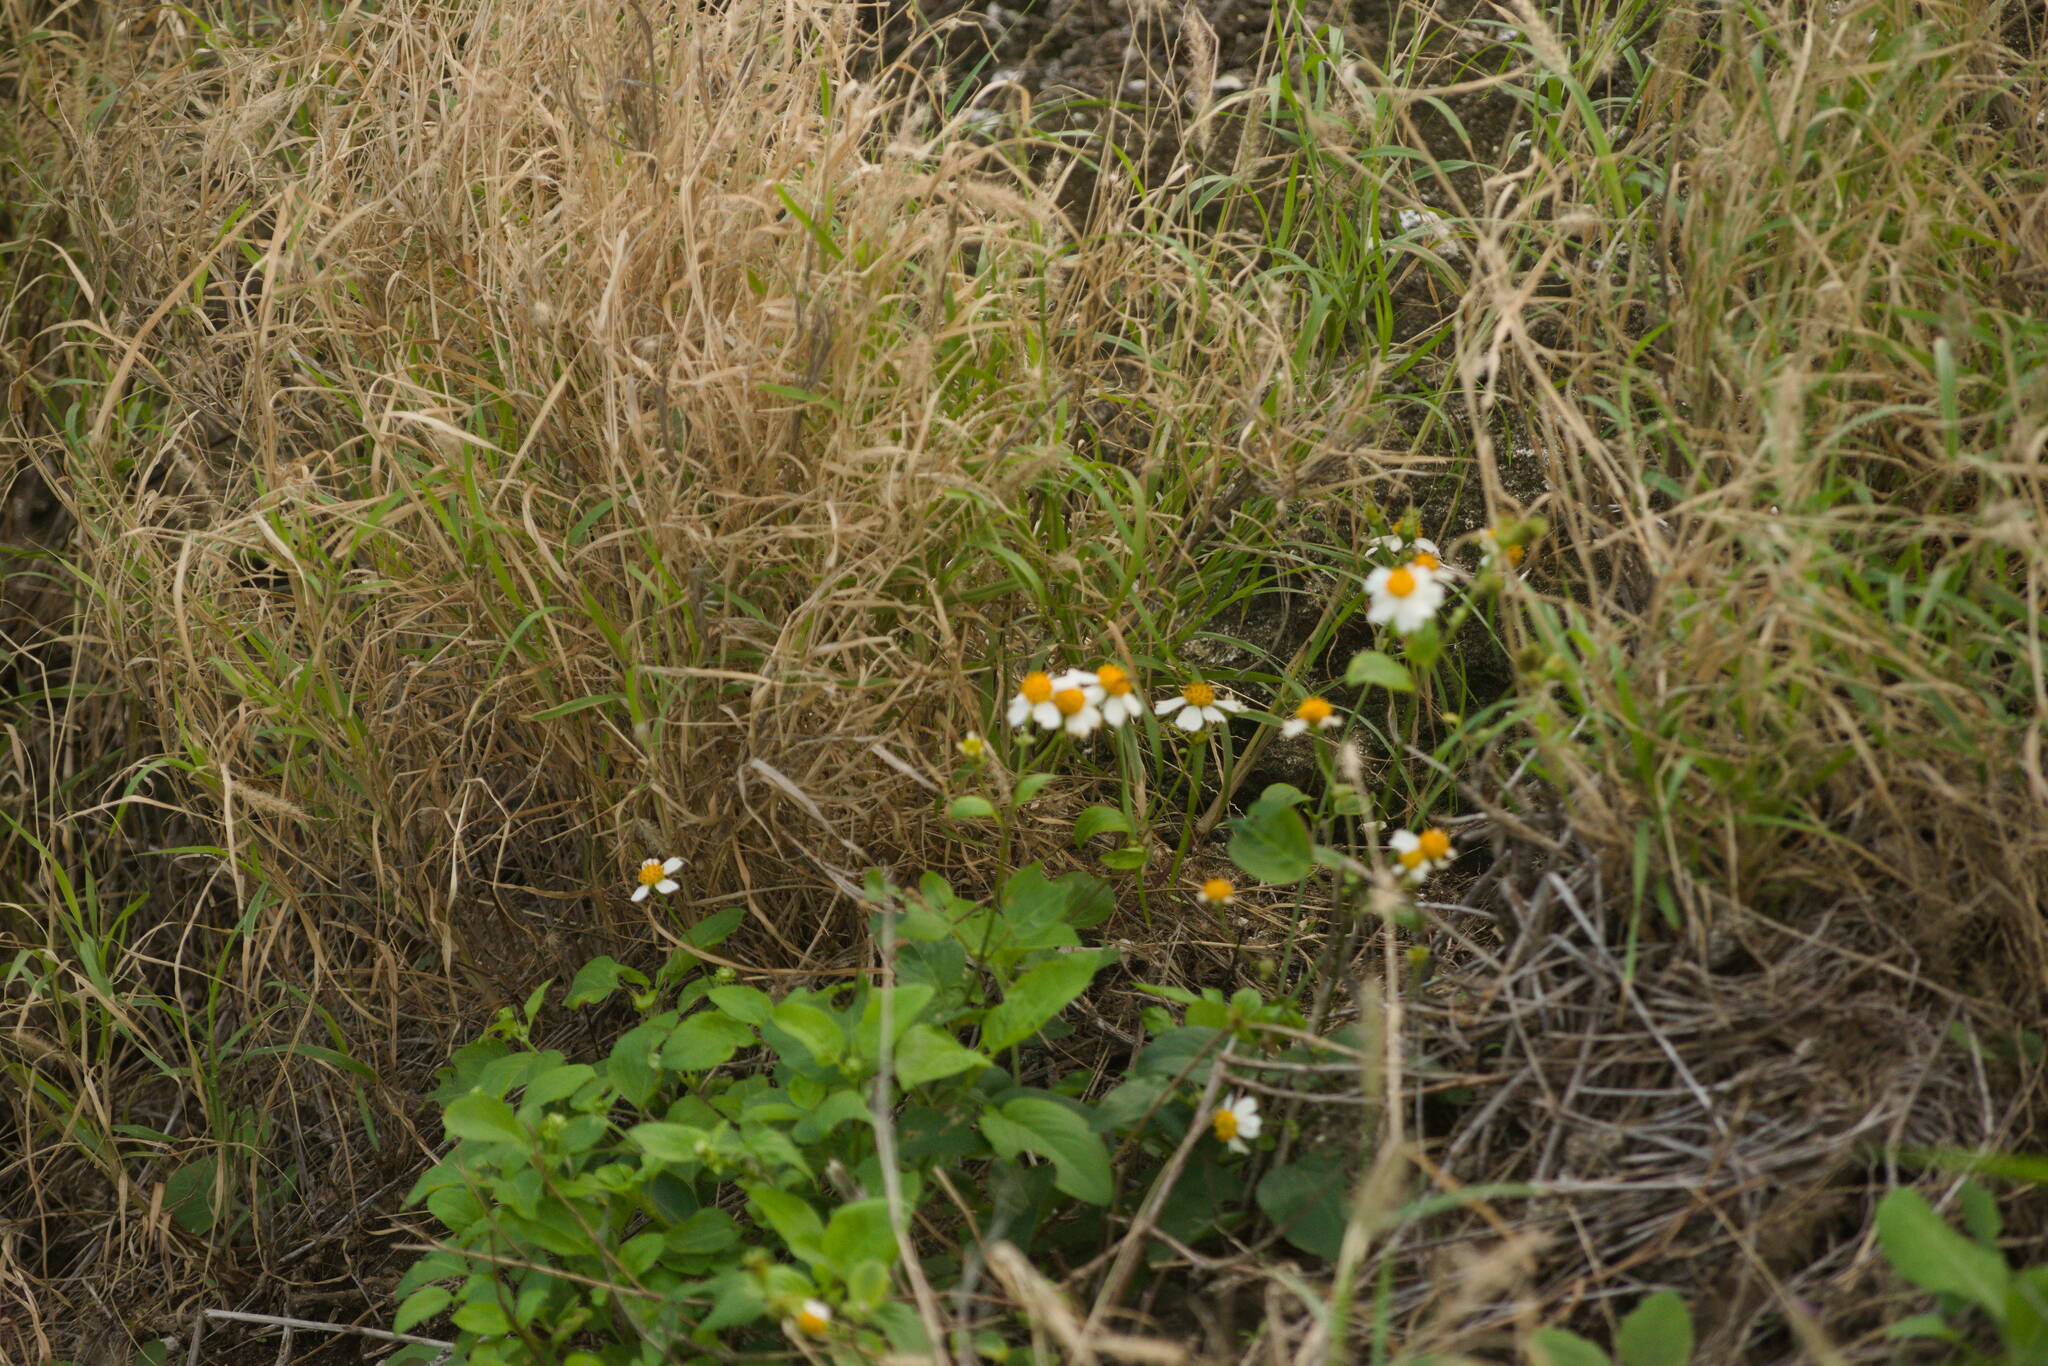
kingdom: Plantae
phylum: Tracheophyta
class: Magnoliopsida
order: Asterales
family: Asteraceae
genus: Bidens
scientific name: Bidens alba
